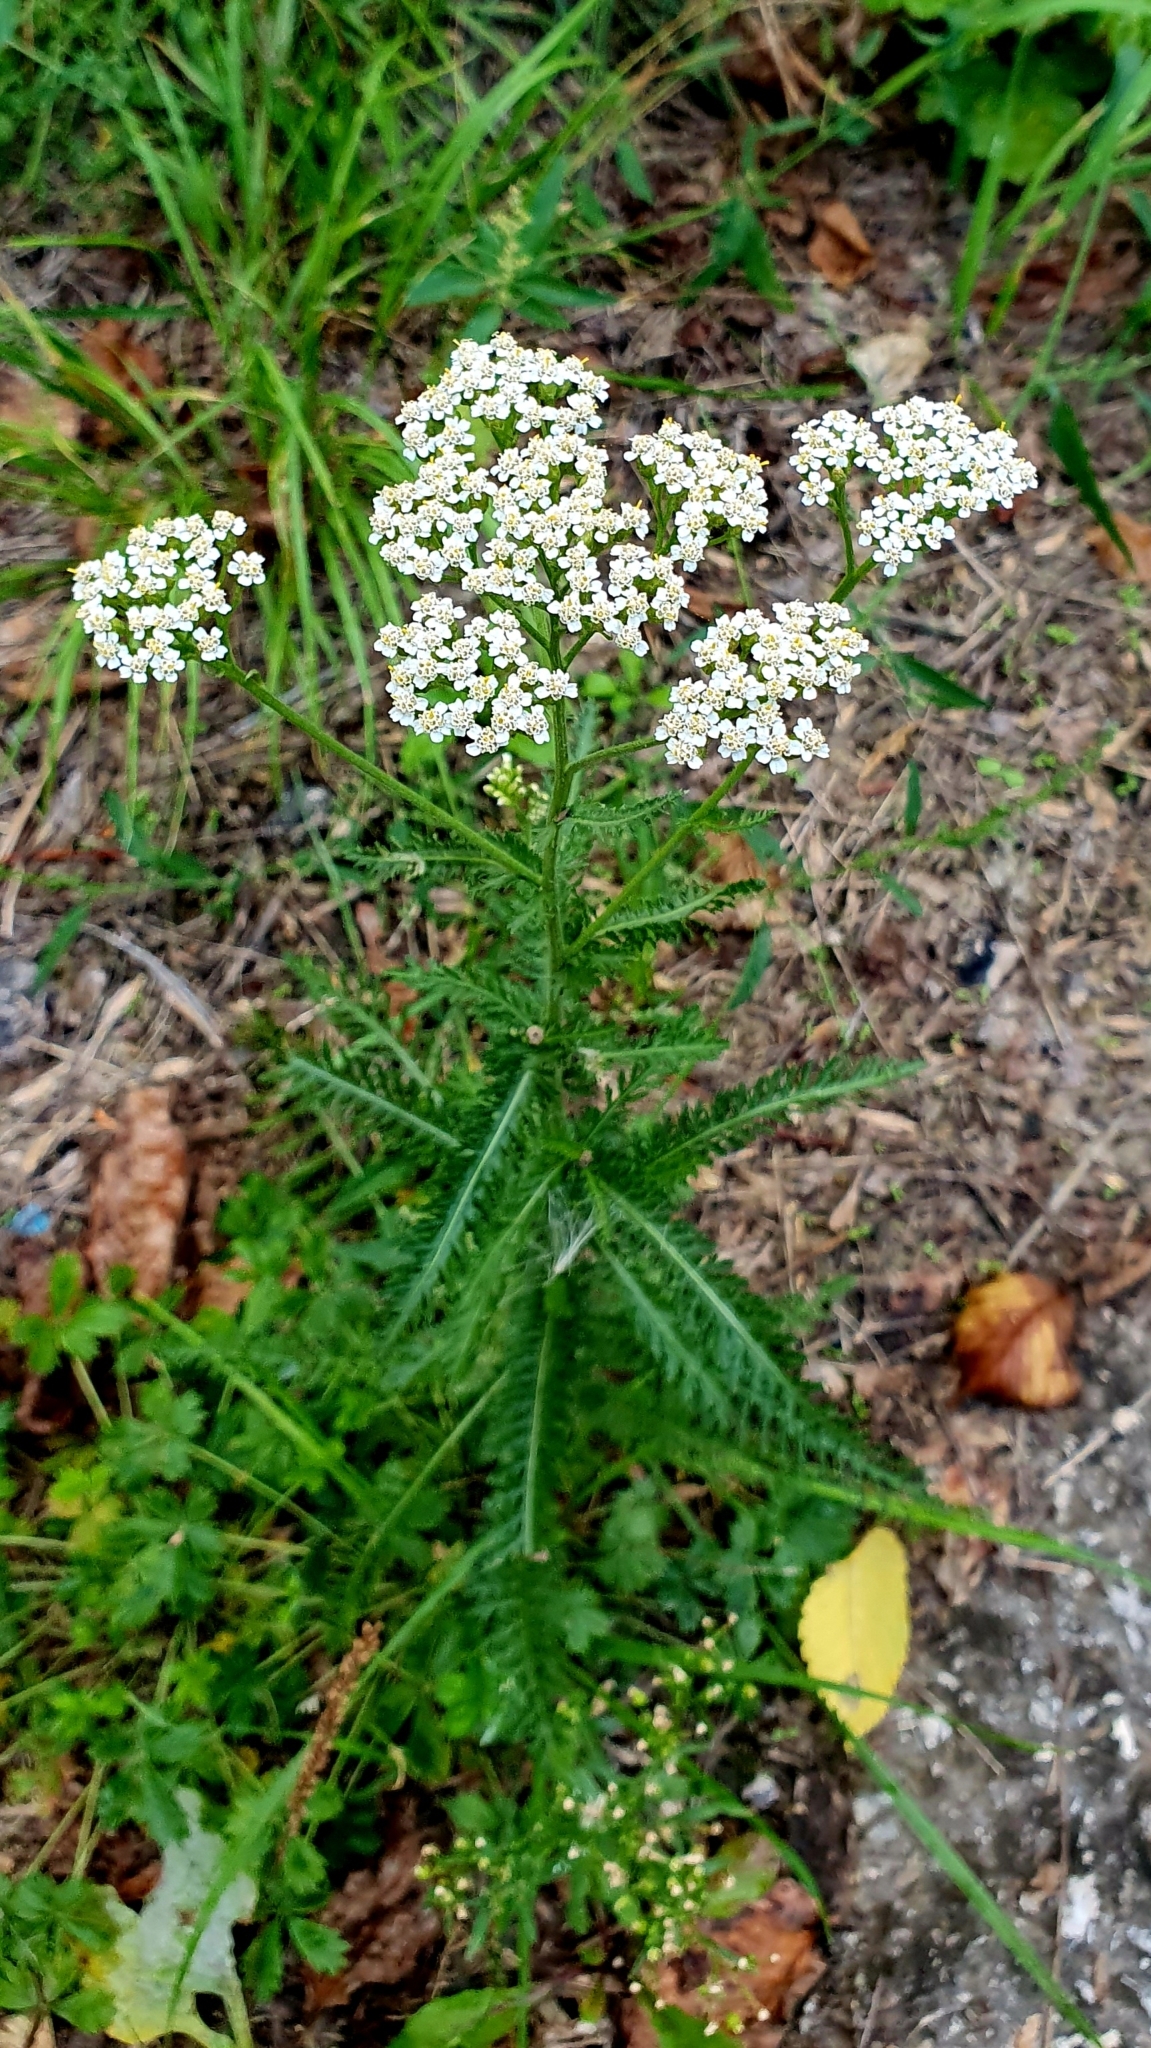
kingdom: Plantae
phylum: Tracheophyta
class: Magnoliopsida
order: Asterales
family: Asteraceae
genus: Achillea
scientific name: Achillea millefolium
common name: Yarrow
